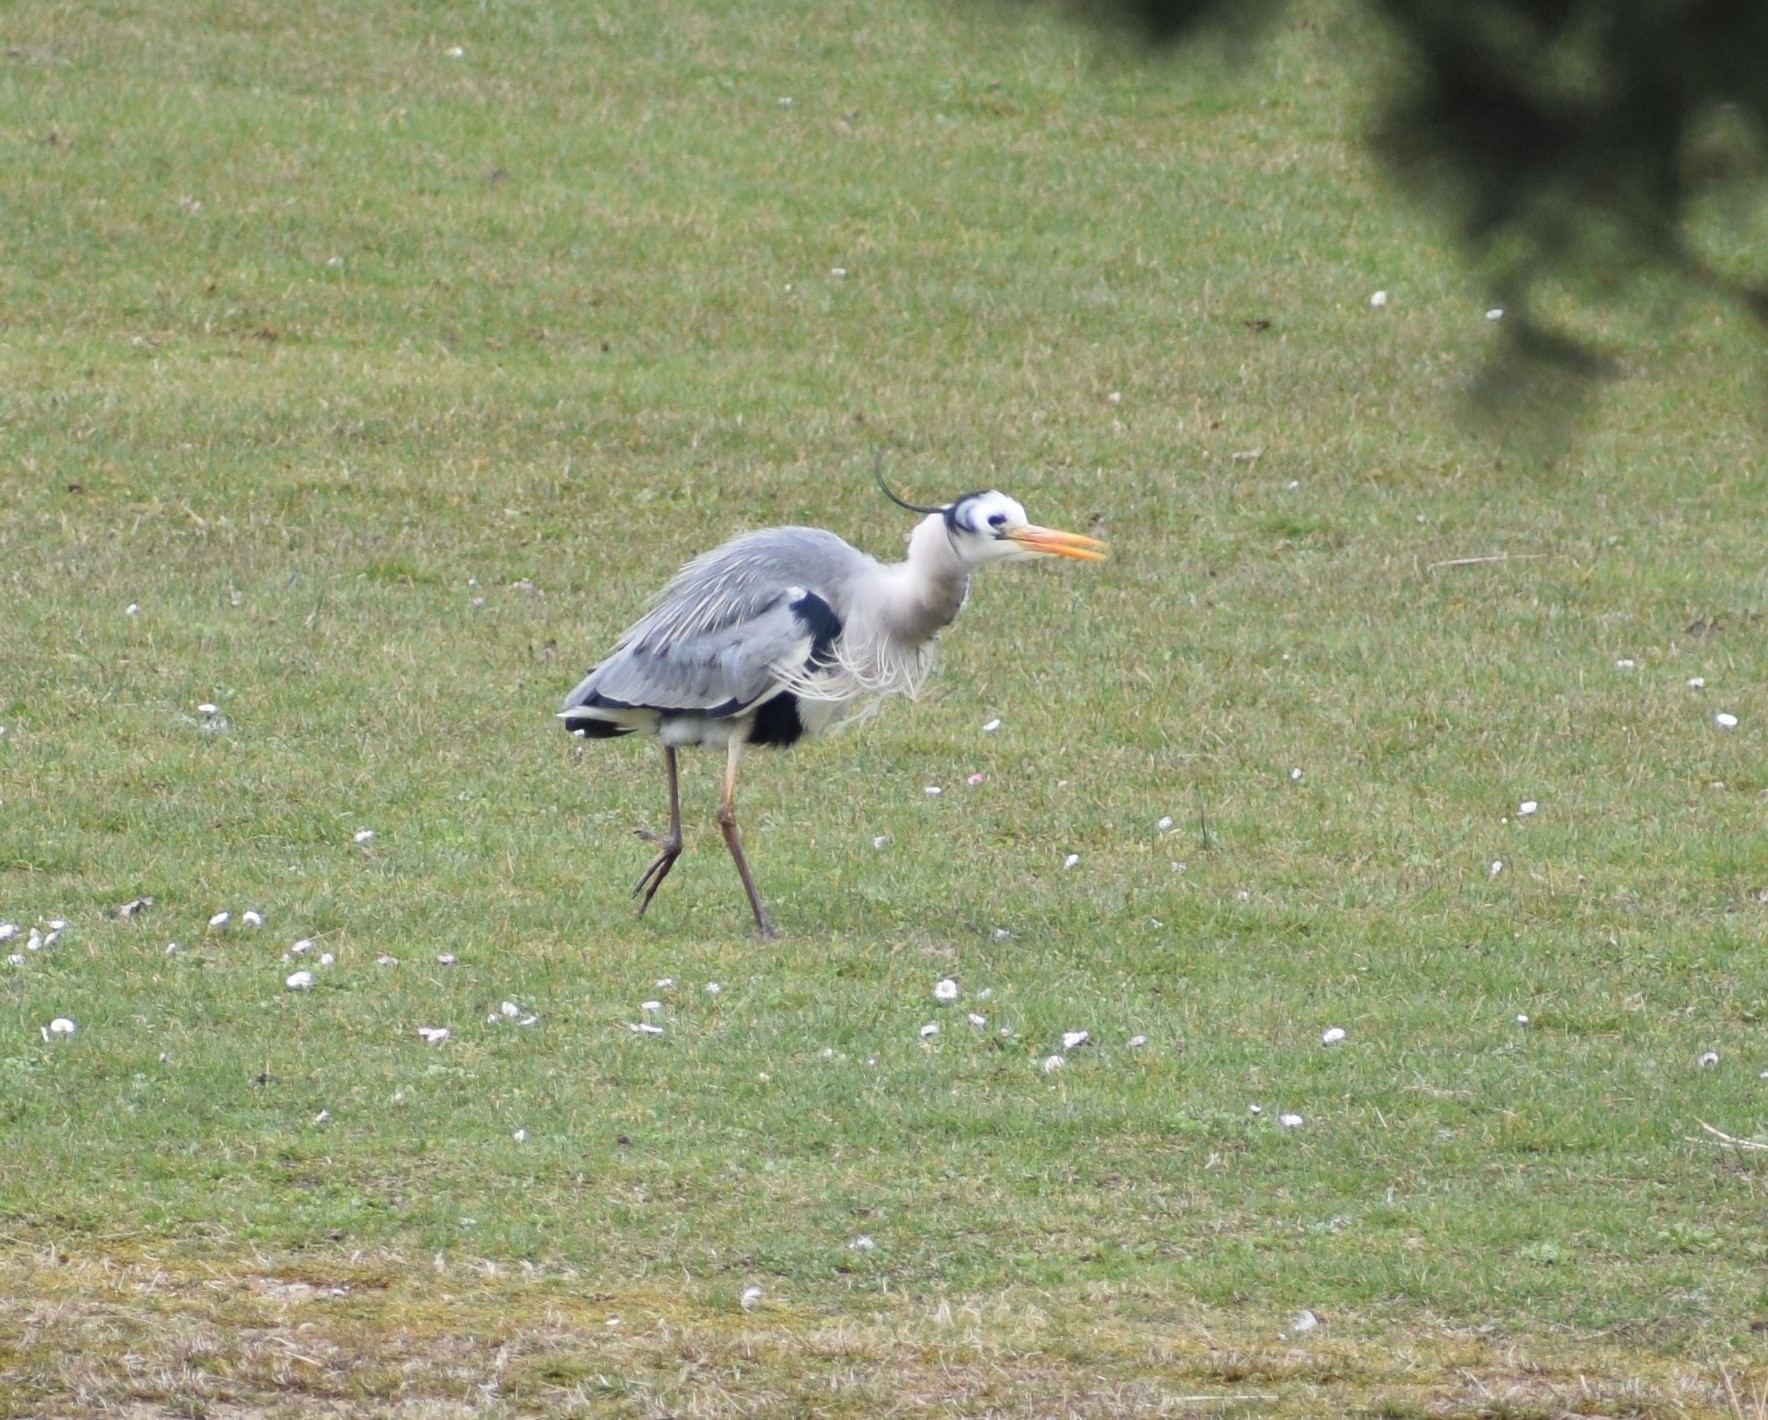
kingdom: Animalia
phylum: Chordata
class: Aves
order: Pelecaniformes
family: Ardeidae
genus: Ardea
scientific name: Ardea cinerea
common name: Grey heron
